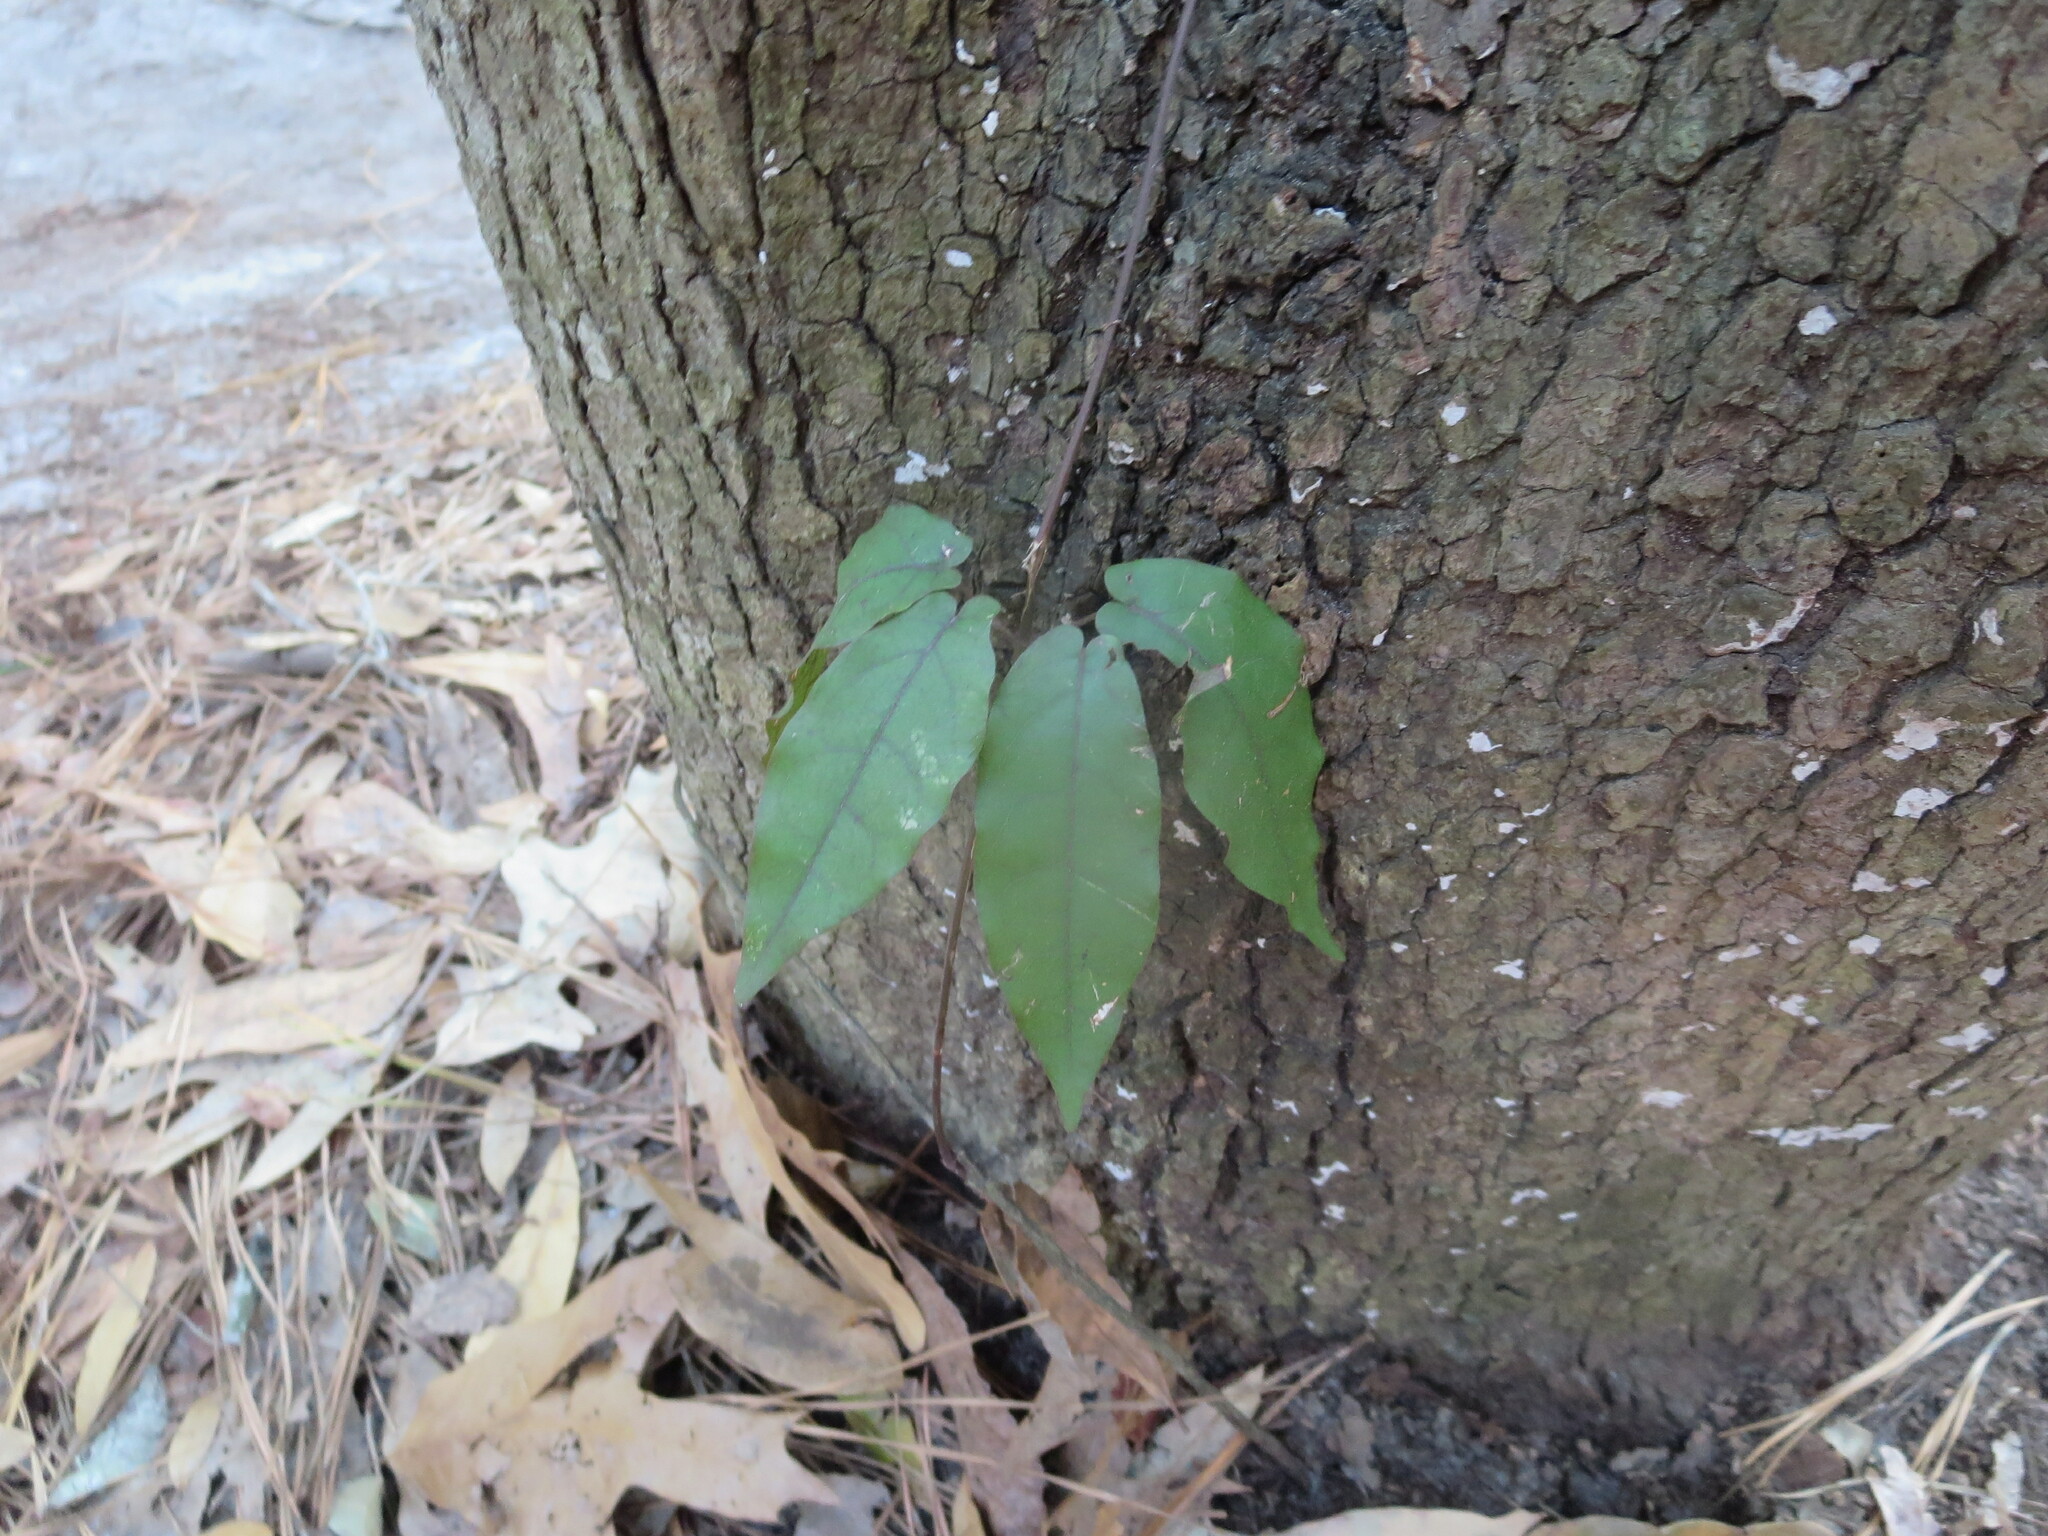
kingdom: Plantae
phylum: Tracheophyta
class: Magnoliopsida
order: Lamiales
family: Bignoniaceae
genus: Bignonia
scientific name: Bignonia capreolata
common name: Crossvine
